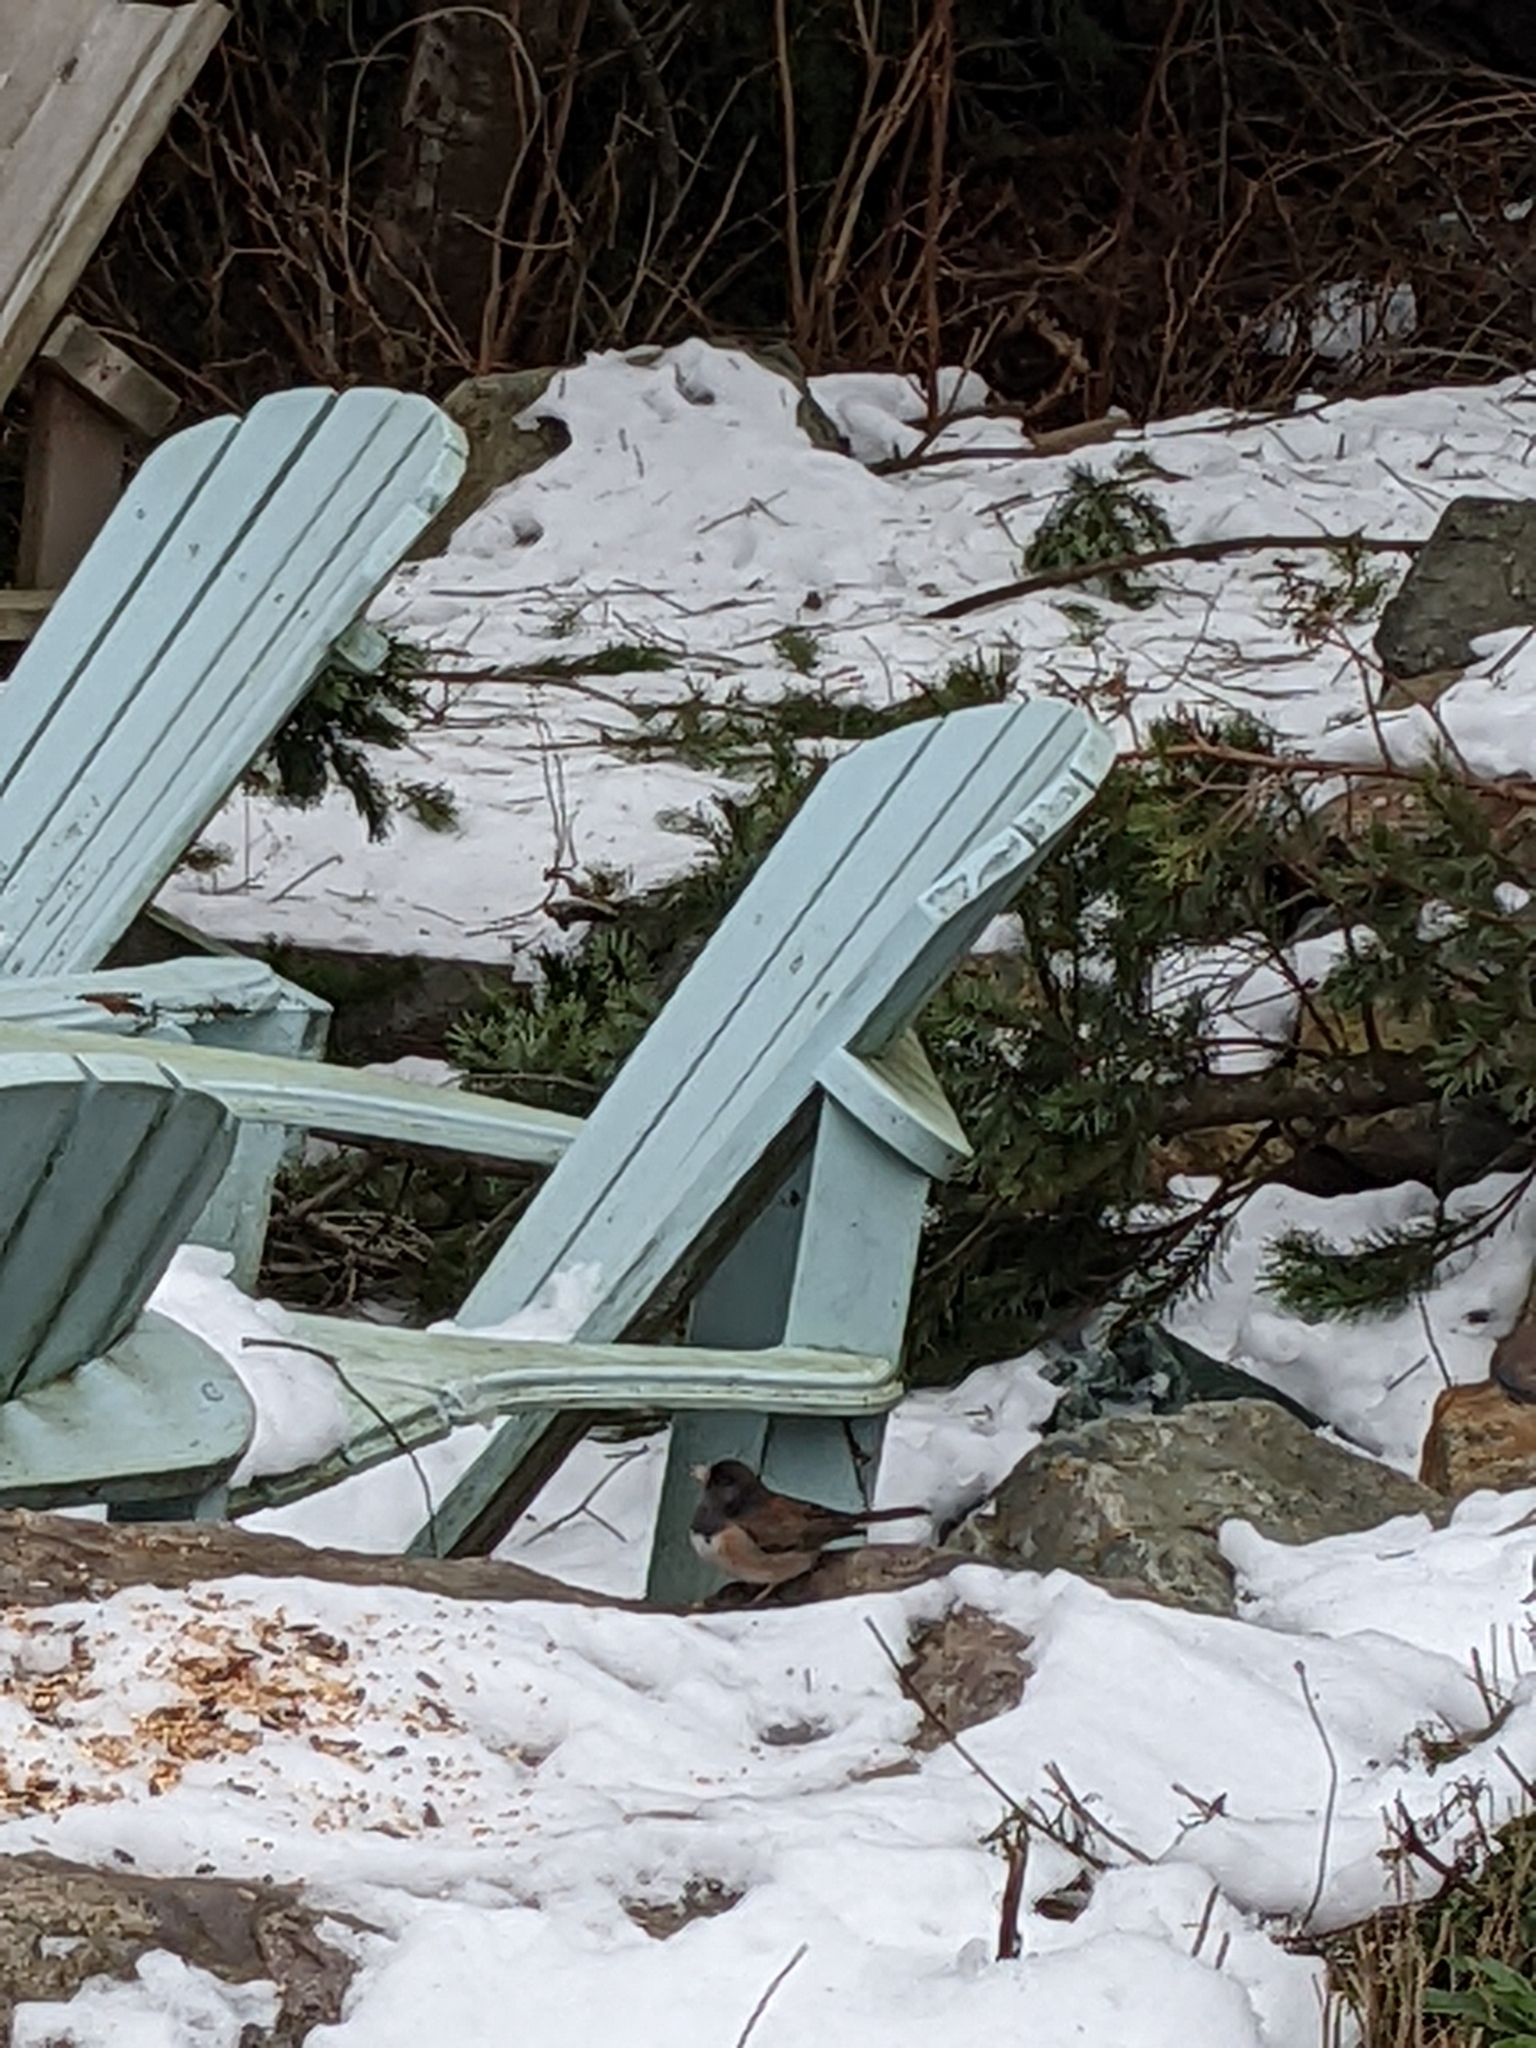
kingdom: Animalia
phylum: Chordata
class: Aves
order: Passeriformes
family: Passerellidae
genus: Junco
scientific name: Junco hyemalis
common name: Dark-eyed junco
